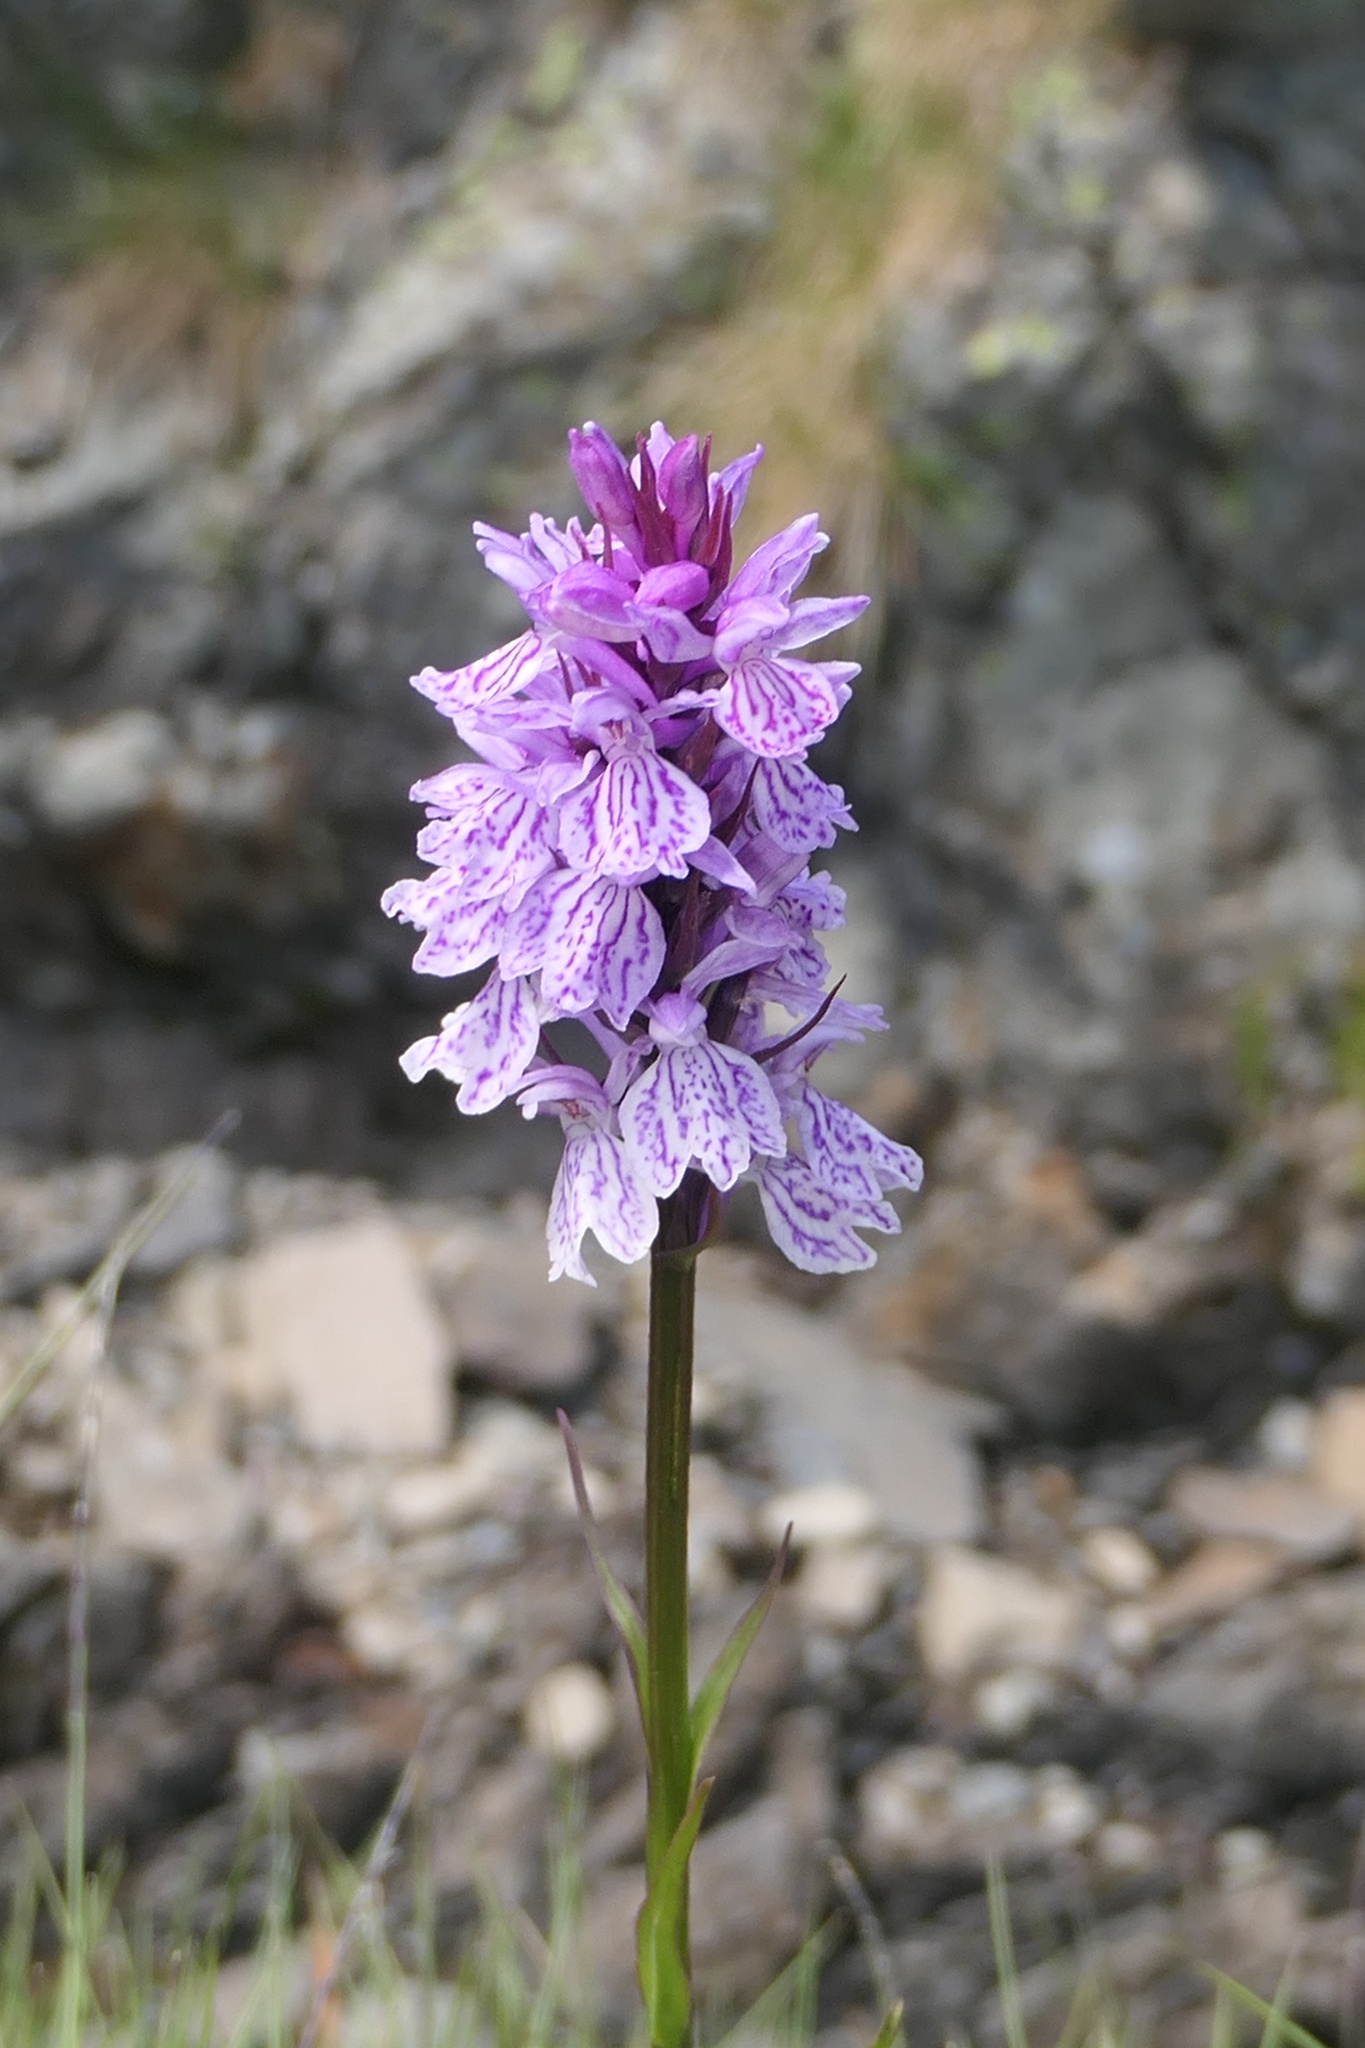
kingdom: Plantae
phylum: Tracheophyta
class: Liliopsida
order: Asparagales
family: Orchidaceae
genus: Dactylorhiza
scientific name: Dactylorhiza maculata
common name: Heath spotted-orchid
